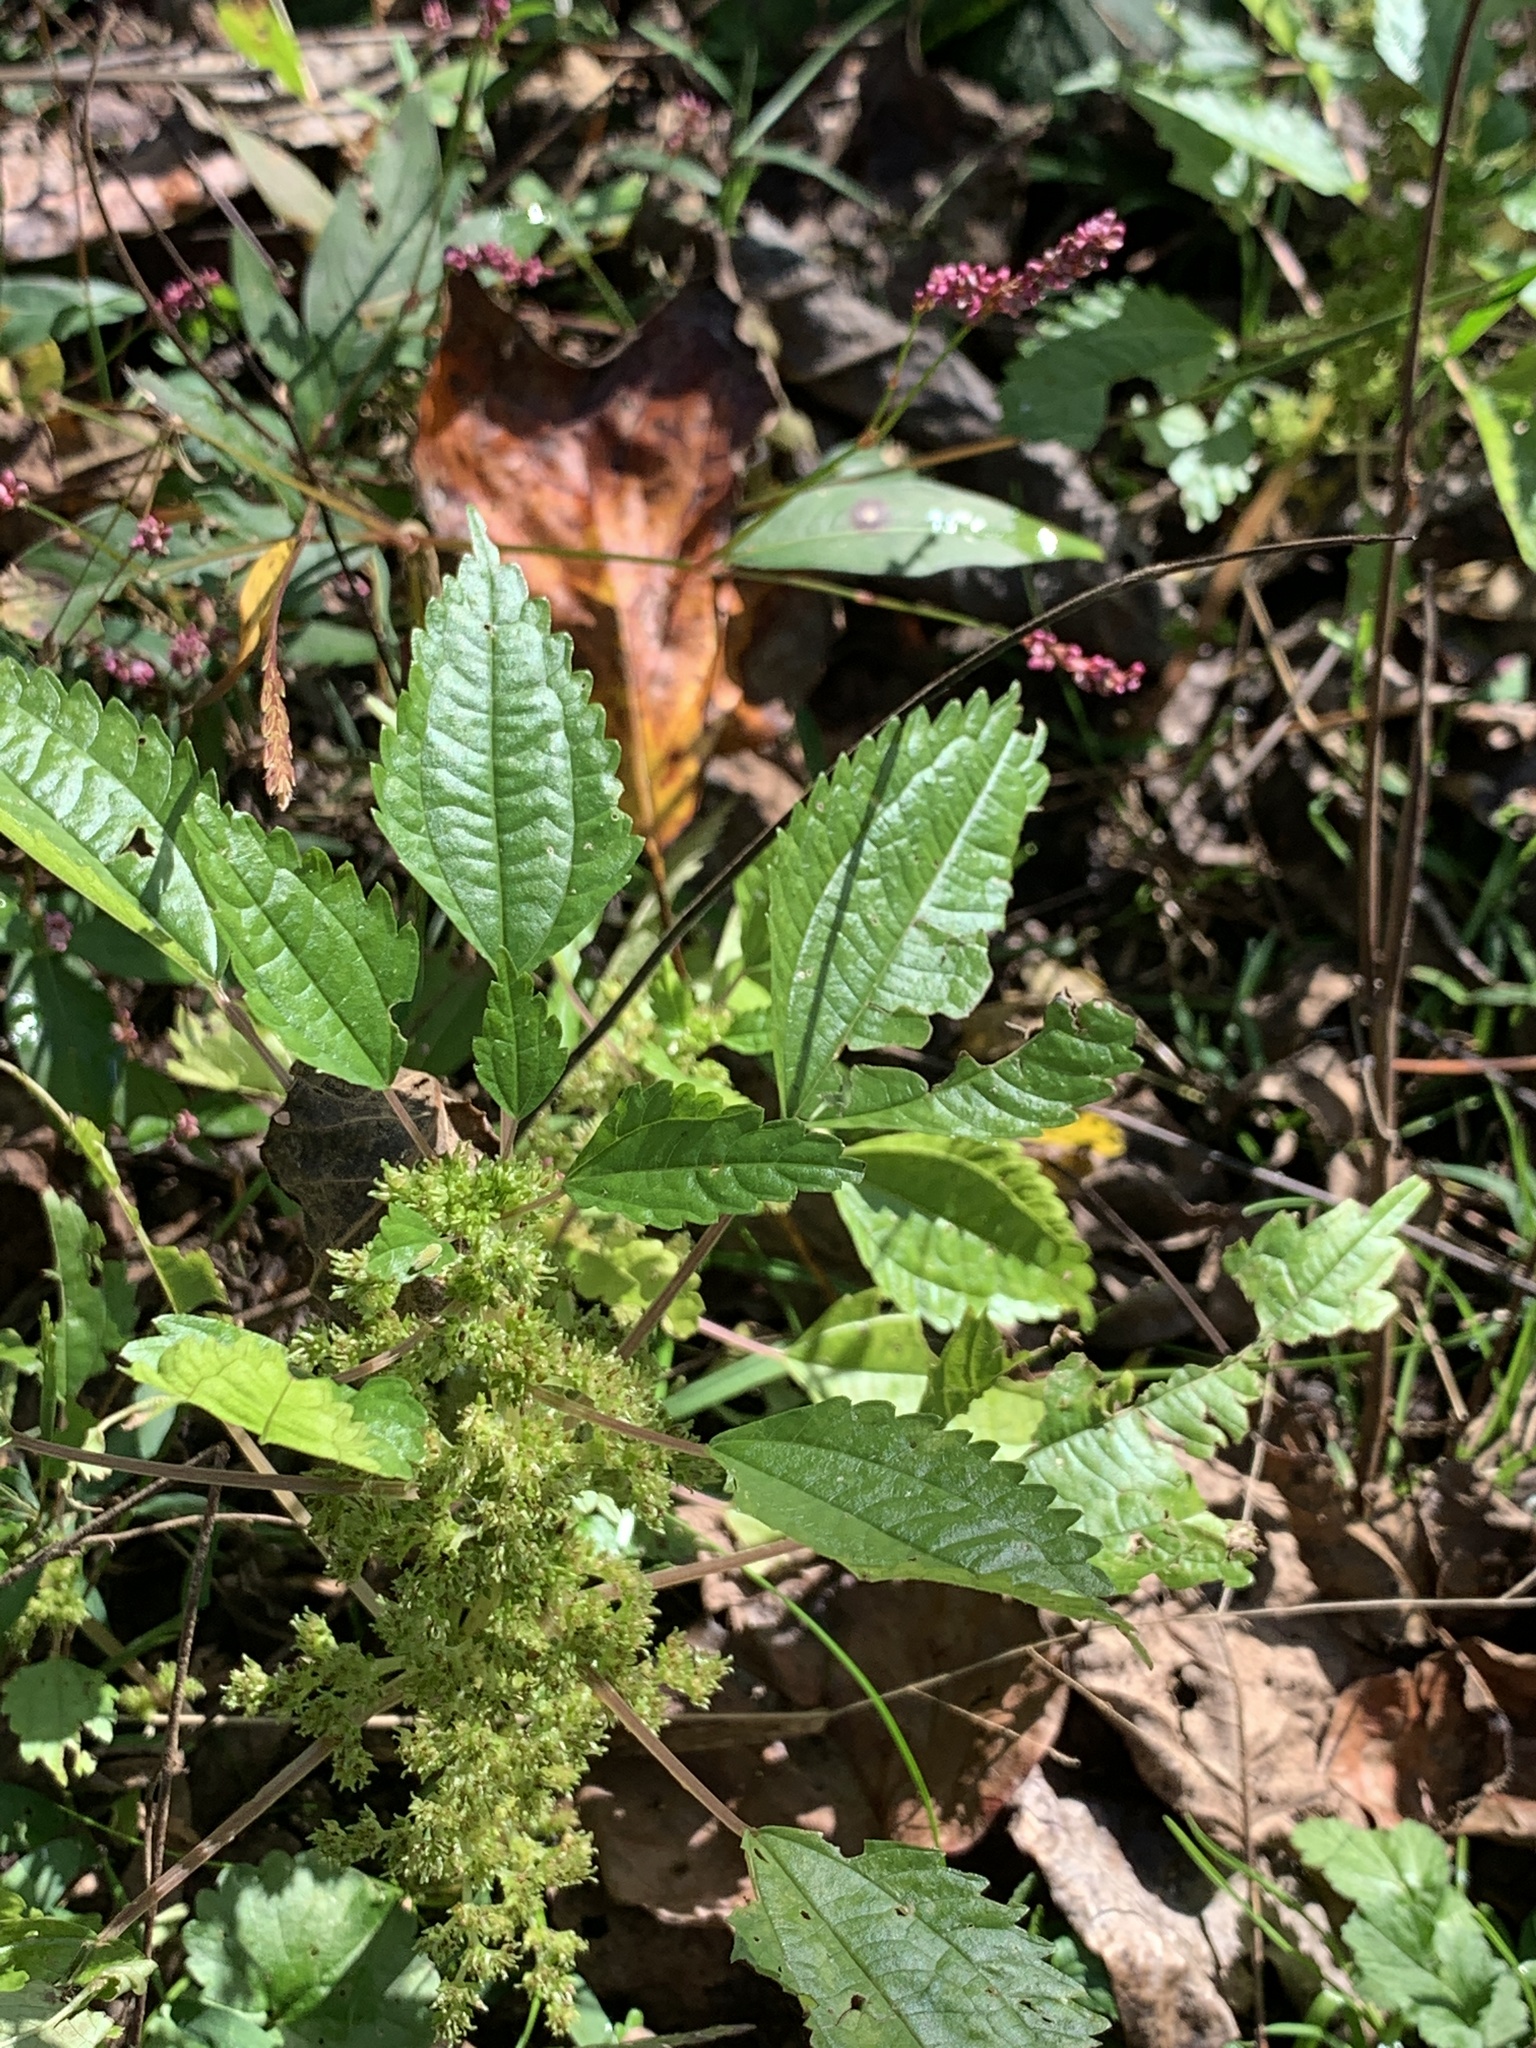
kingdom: Plantae
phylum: Tracheophyta
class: Magnoliopsida
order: Rosales
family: Urticaceae
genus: Pilea
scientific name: Pilea pumila
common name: Clearweed
